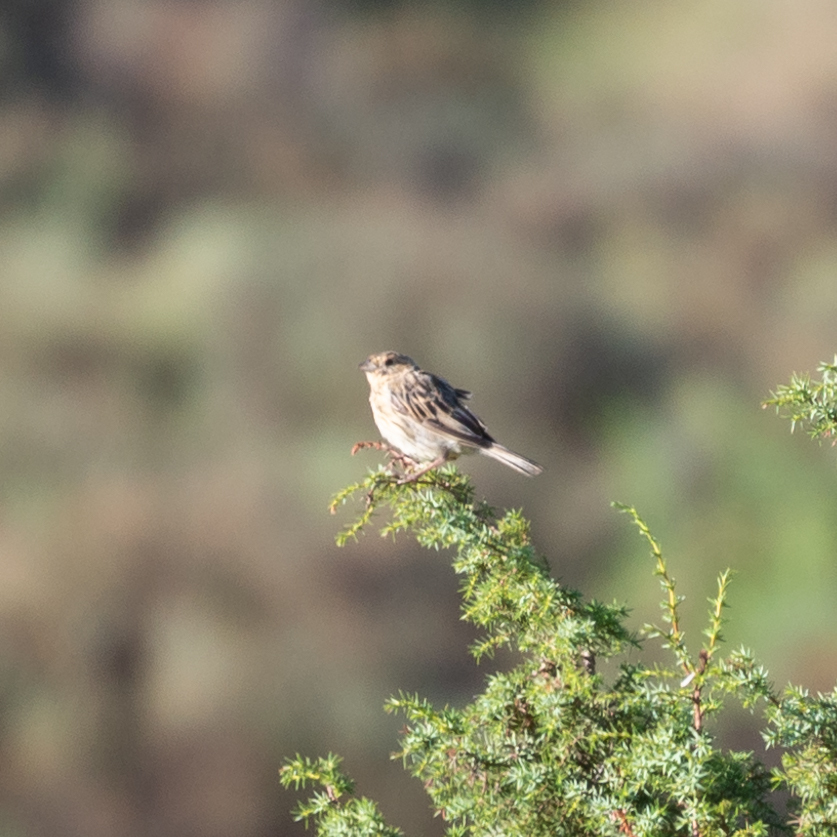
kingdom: Animalia
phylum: Chordata
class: Aves
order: Passeriformes
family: Emberizidae
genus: Emberiza
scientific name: Emberiza calandra
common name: Corn bunting
